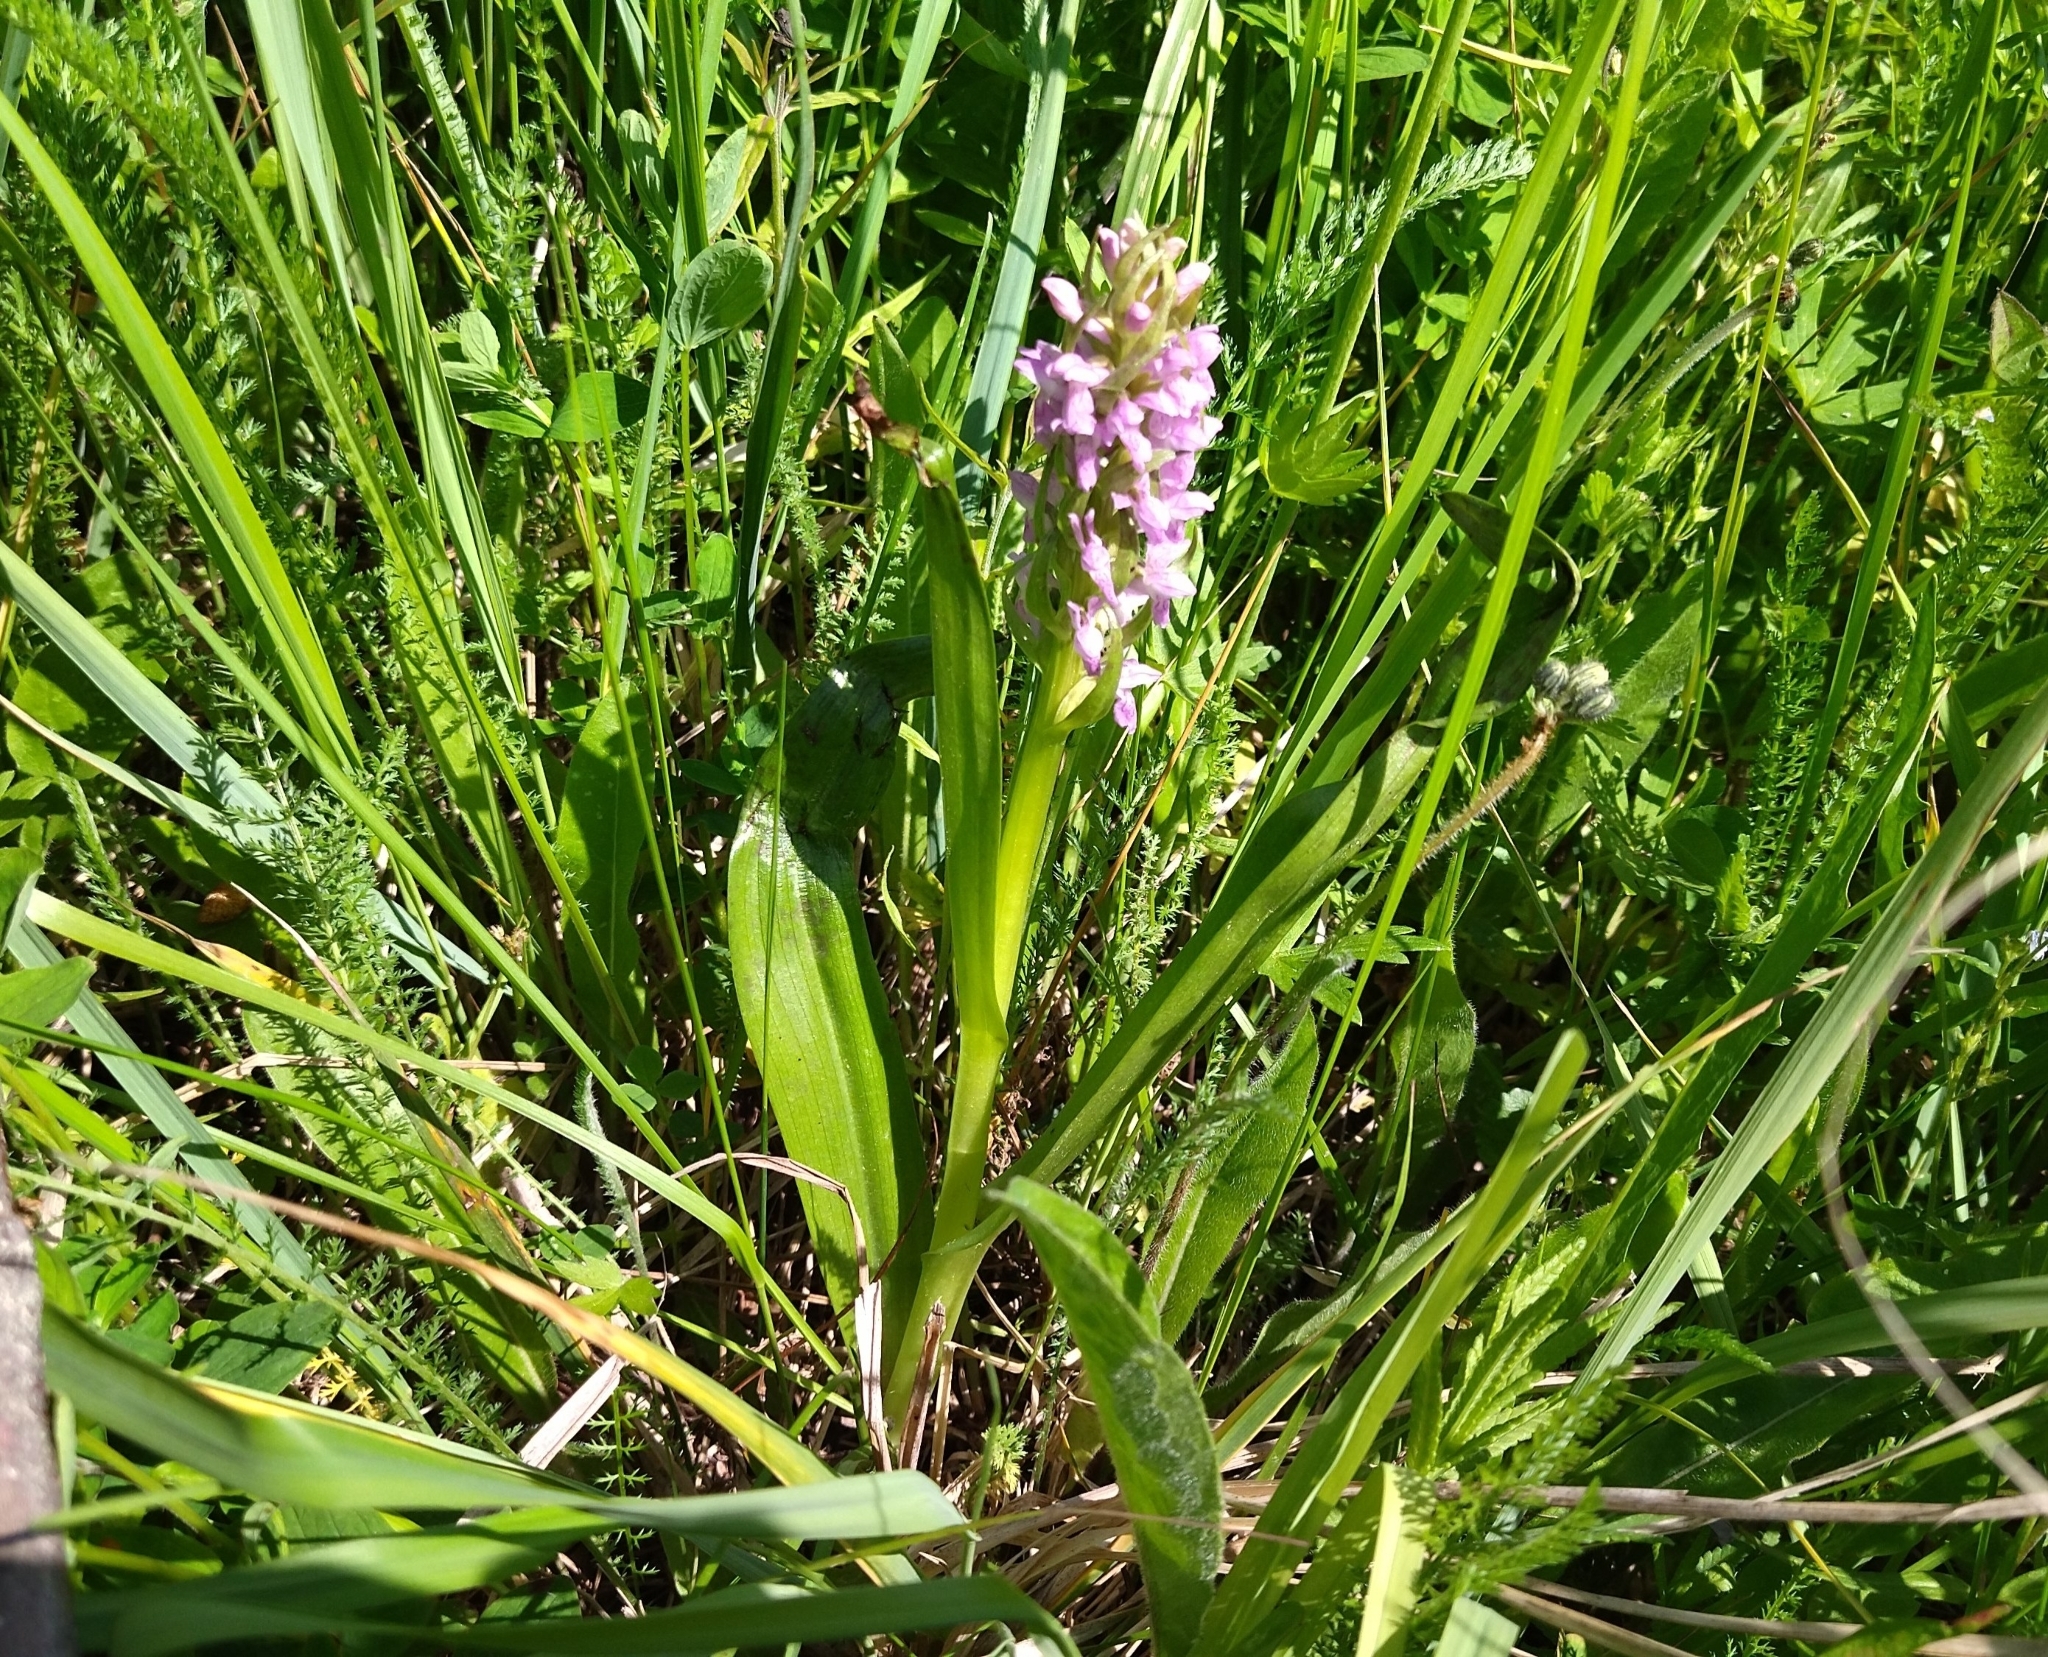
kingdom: Plantae
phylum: Tracheophyta
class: Liliopsida
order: Asparagales
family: Orchidaceae
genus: Dactylorhiza
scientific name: Dactylorhiza incarnata
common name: Early marsh-orchid
